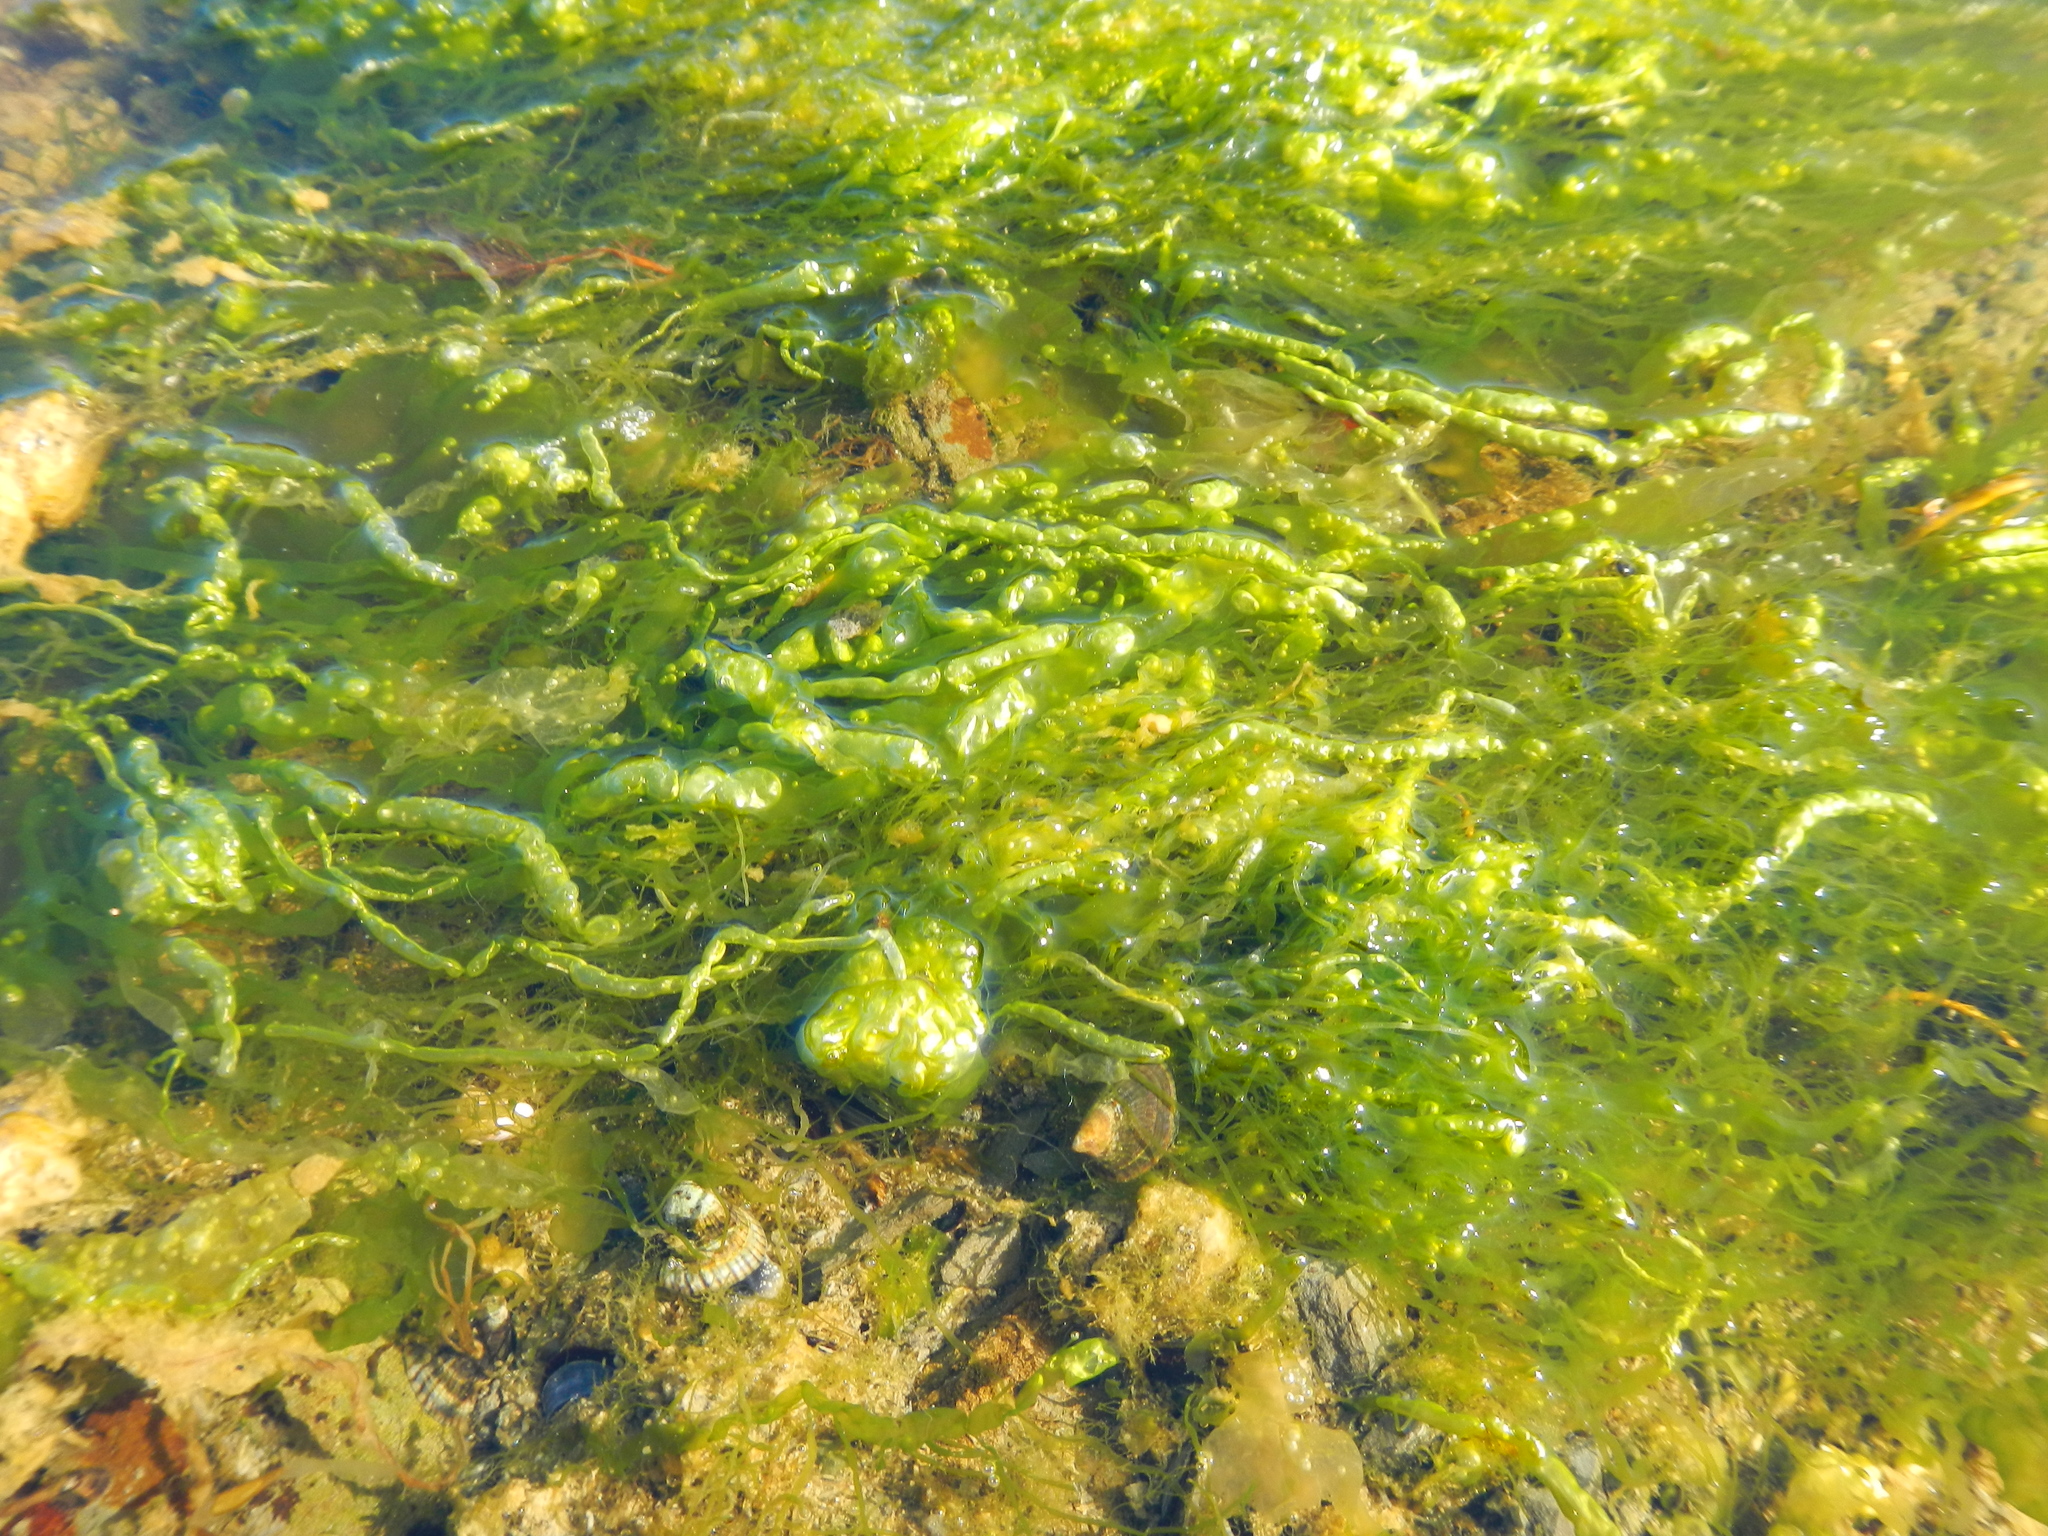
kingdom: Plantae
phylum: Chlorophyta
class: Ulvophyceae
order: Ulvales
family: Ulvaceae
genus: Ulva
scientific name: Ulva intestinalis
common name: Gut weed
